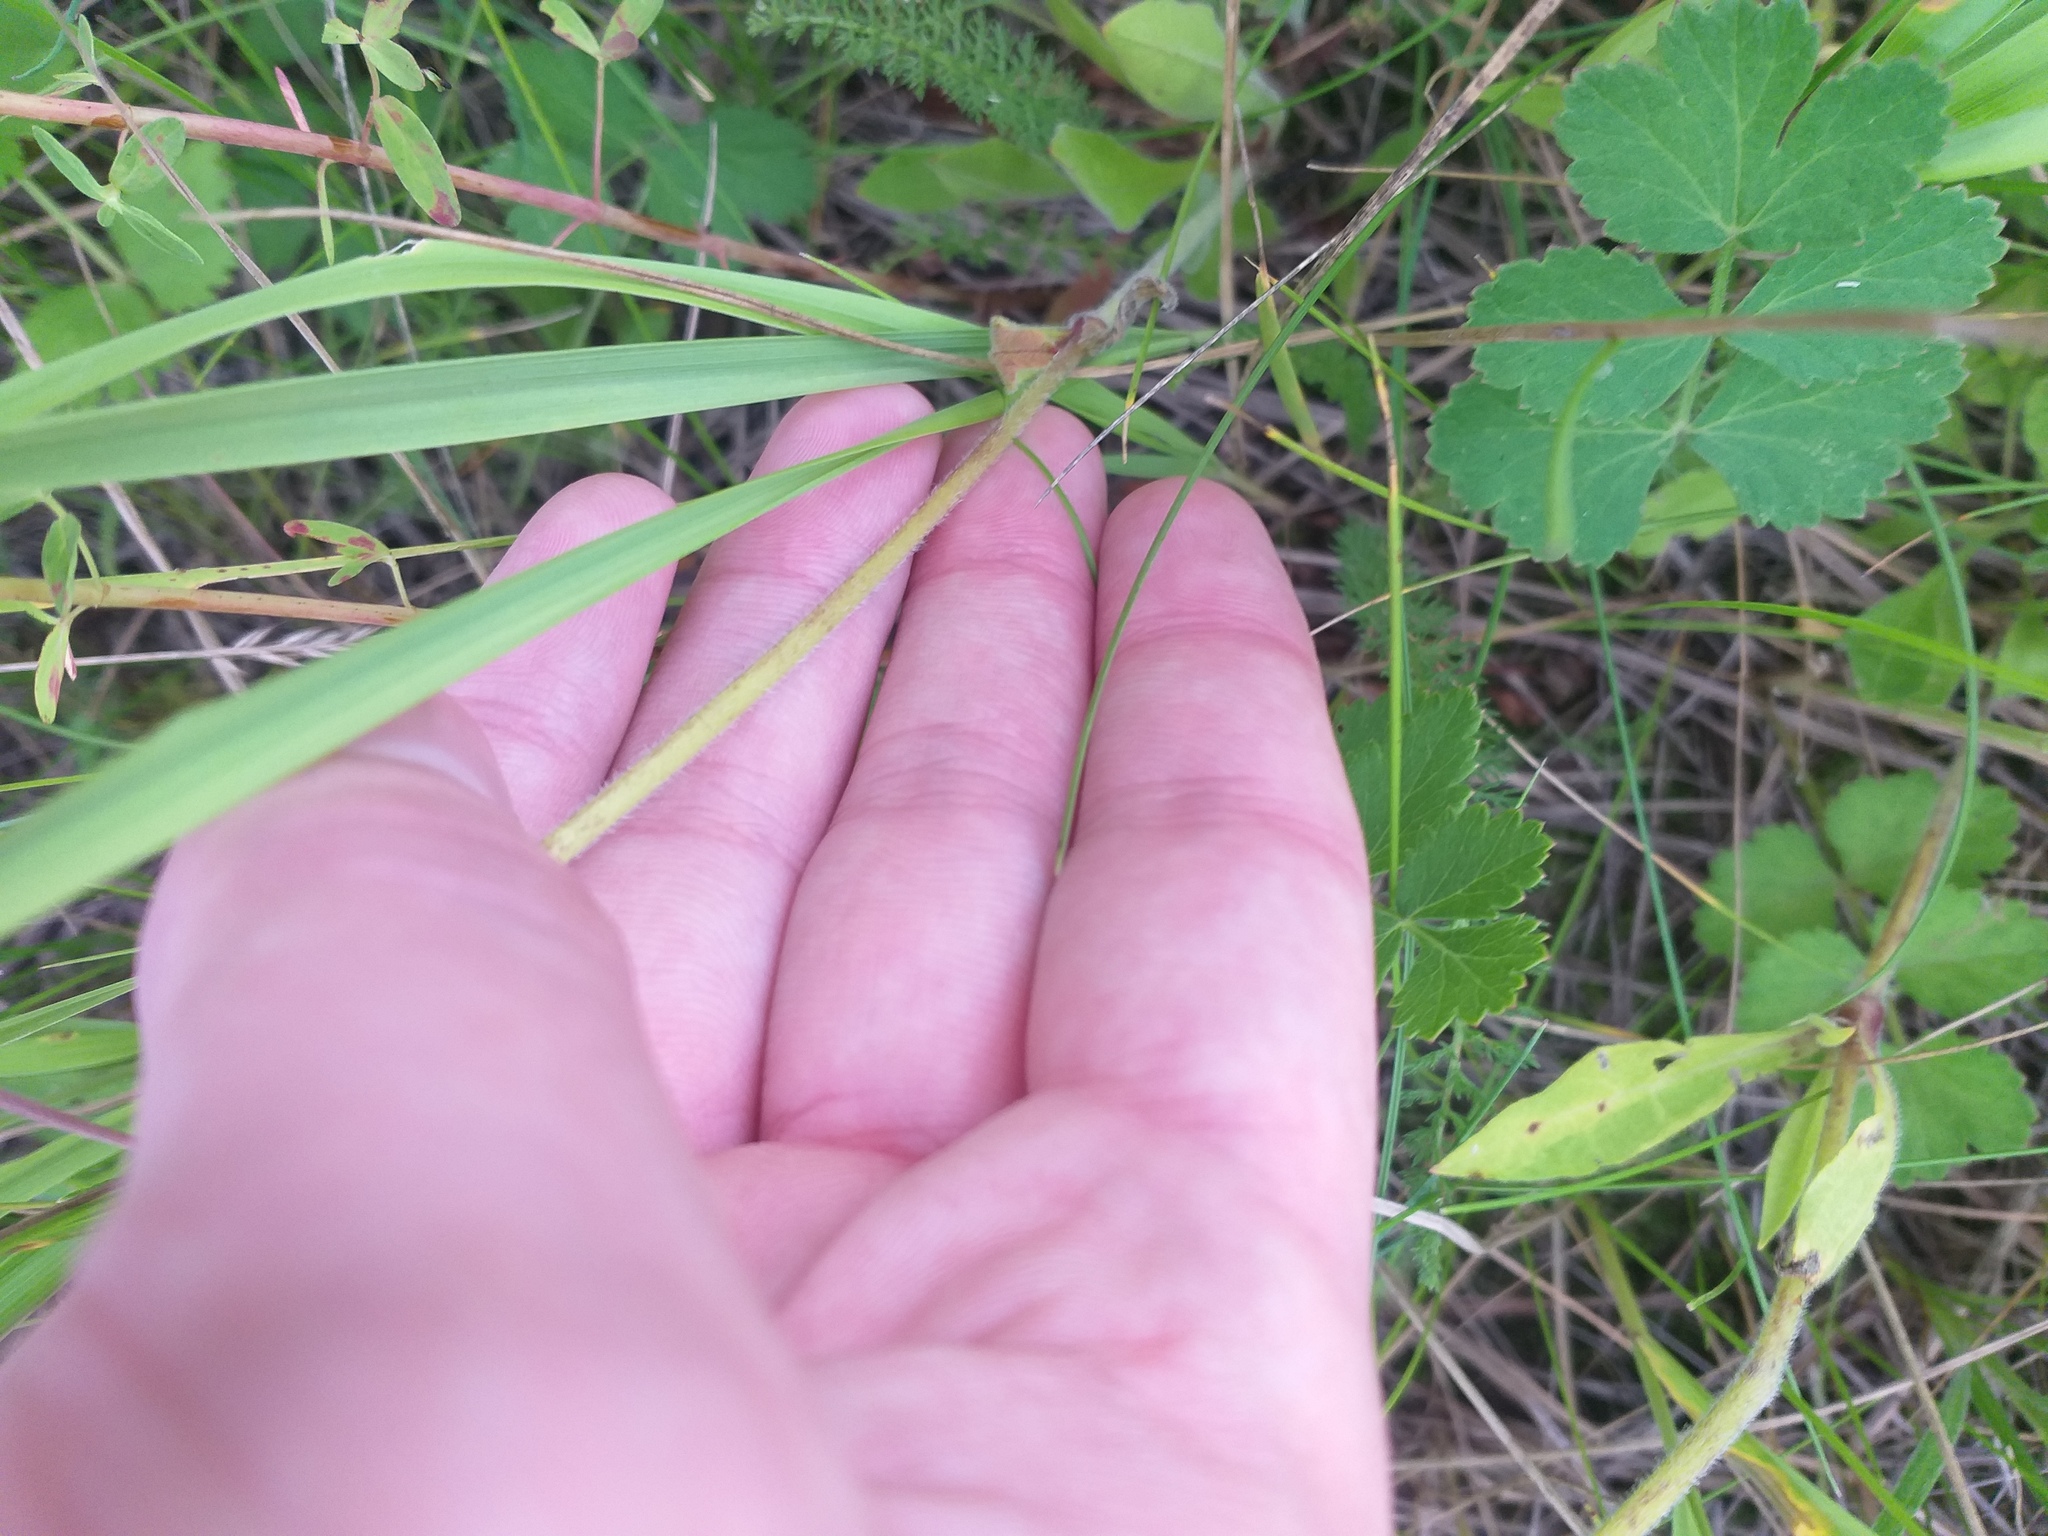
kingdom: Plantae
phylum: Tracheophyta
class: Magnoliopsida
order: Caryophyllales
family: Caryophyllaceae
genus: Silene
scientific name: Silene nutans
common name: Nottingham catchfly
